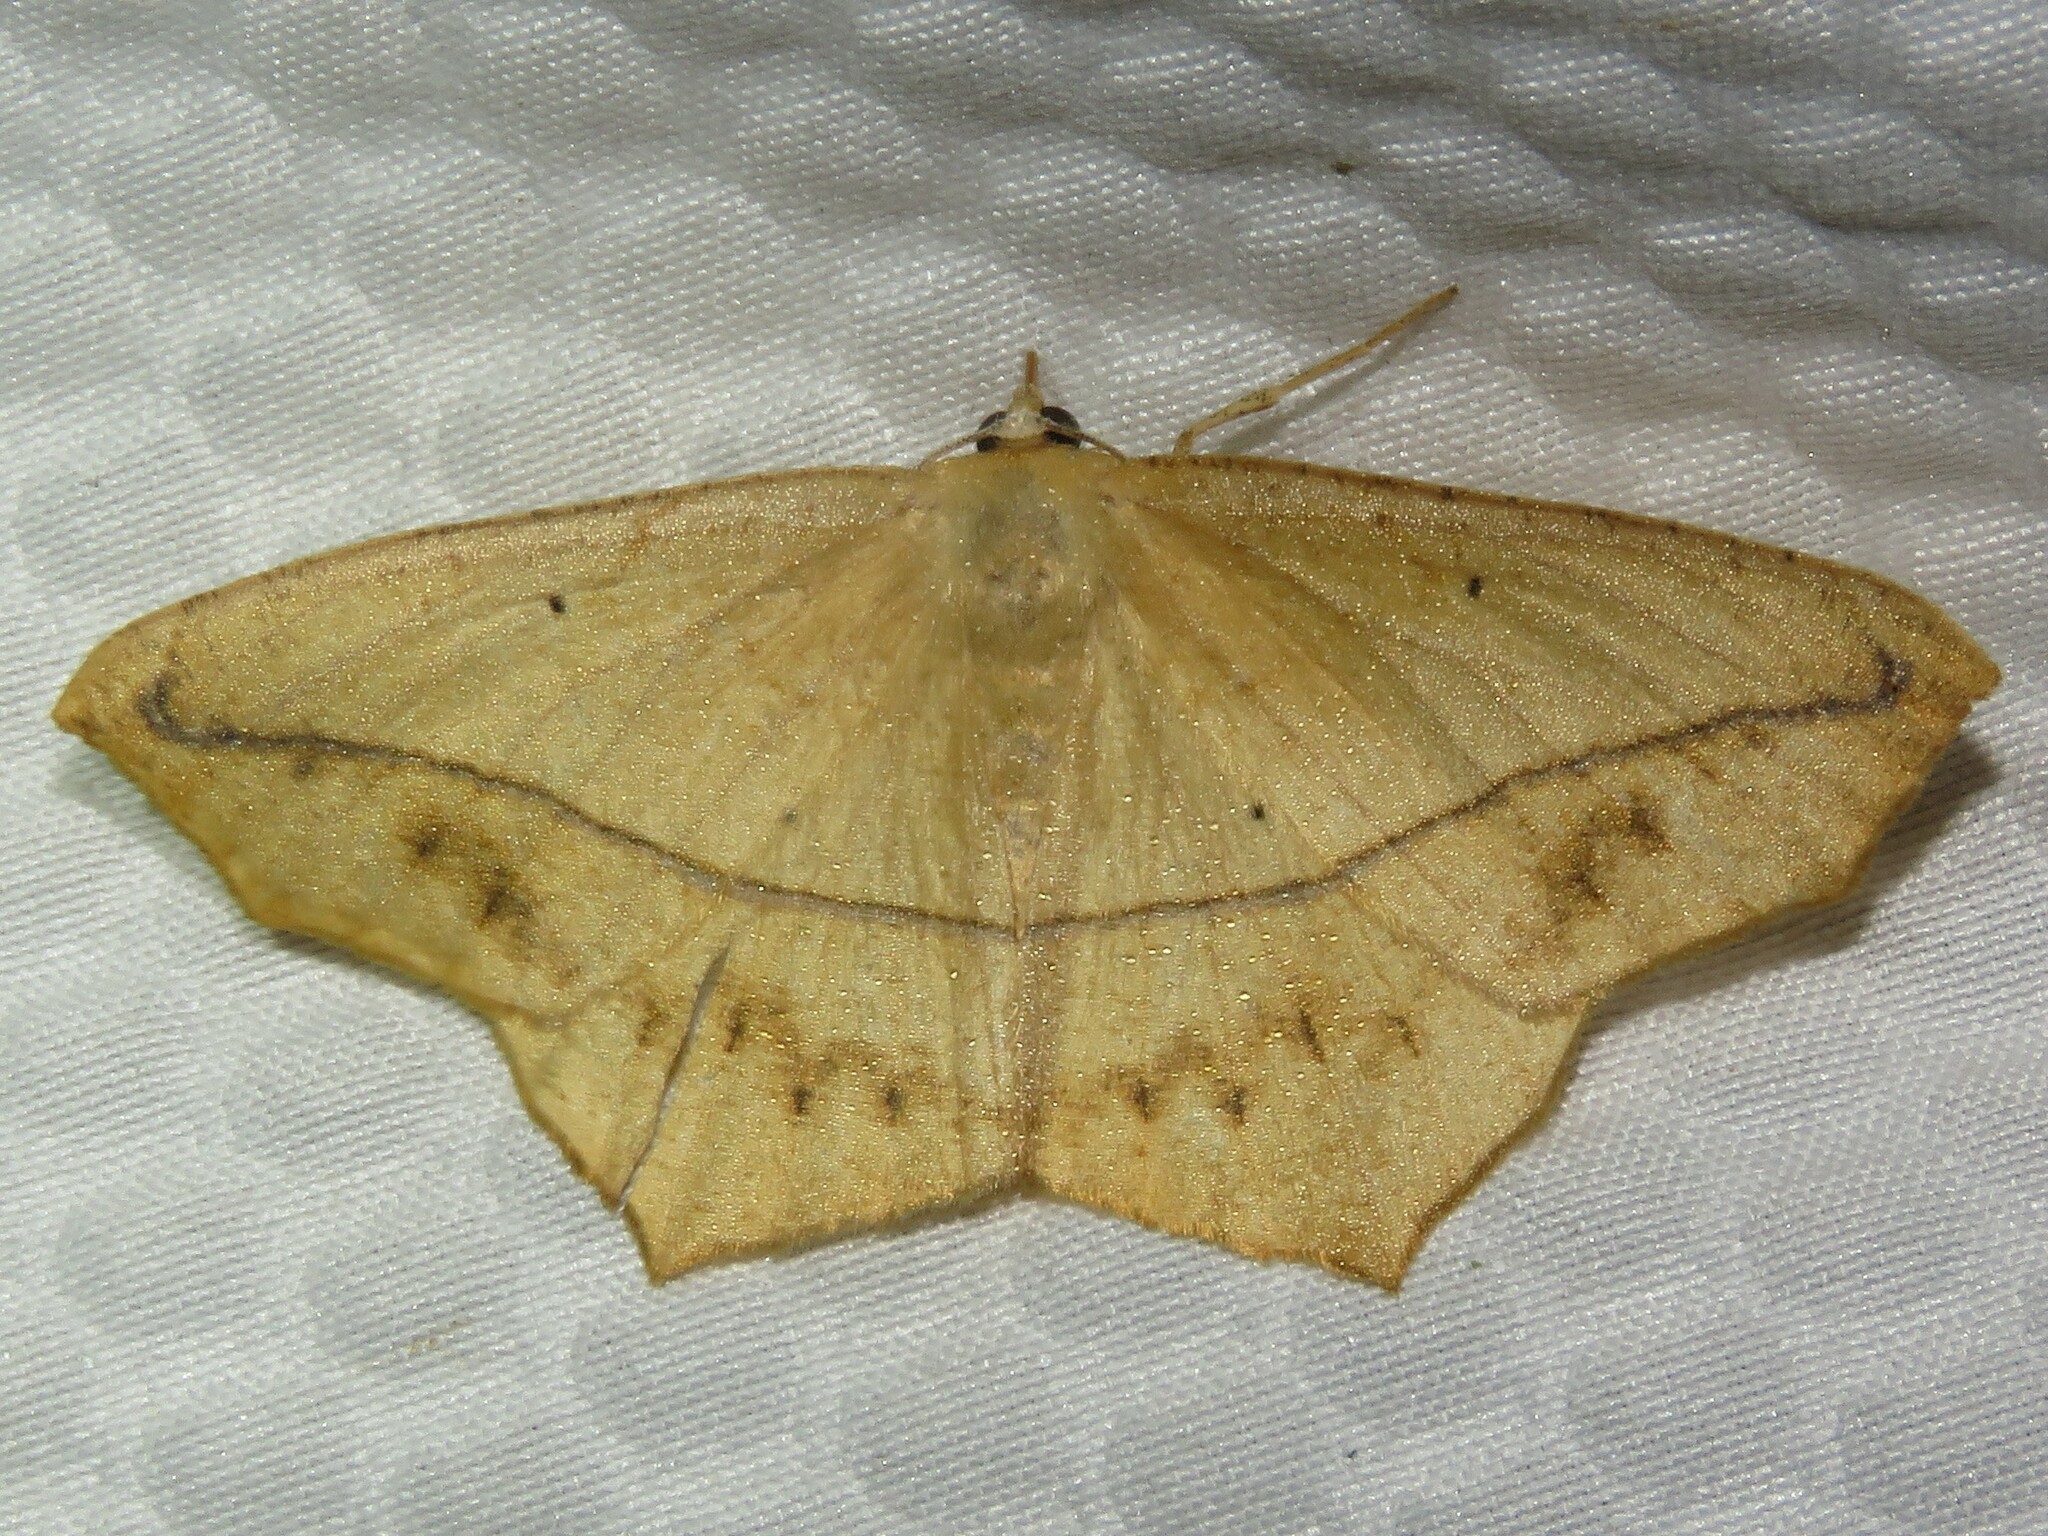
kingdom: Animalia
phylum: Arthropoda
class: Insecta
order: Lepidoptera
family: Geometridae
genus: Prochoerodes
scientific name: Prochoerodes lineola
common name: Large maple spanworm
